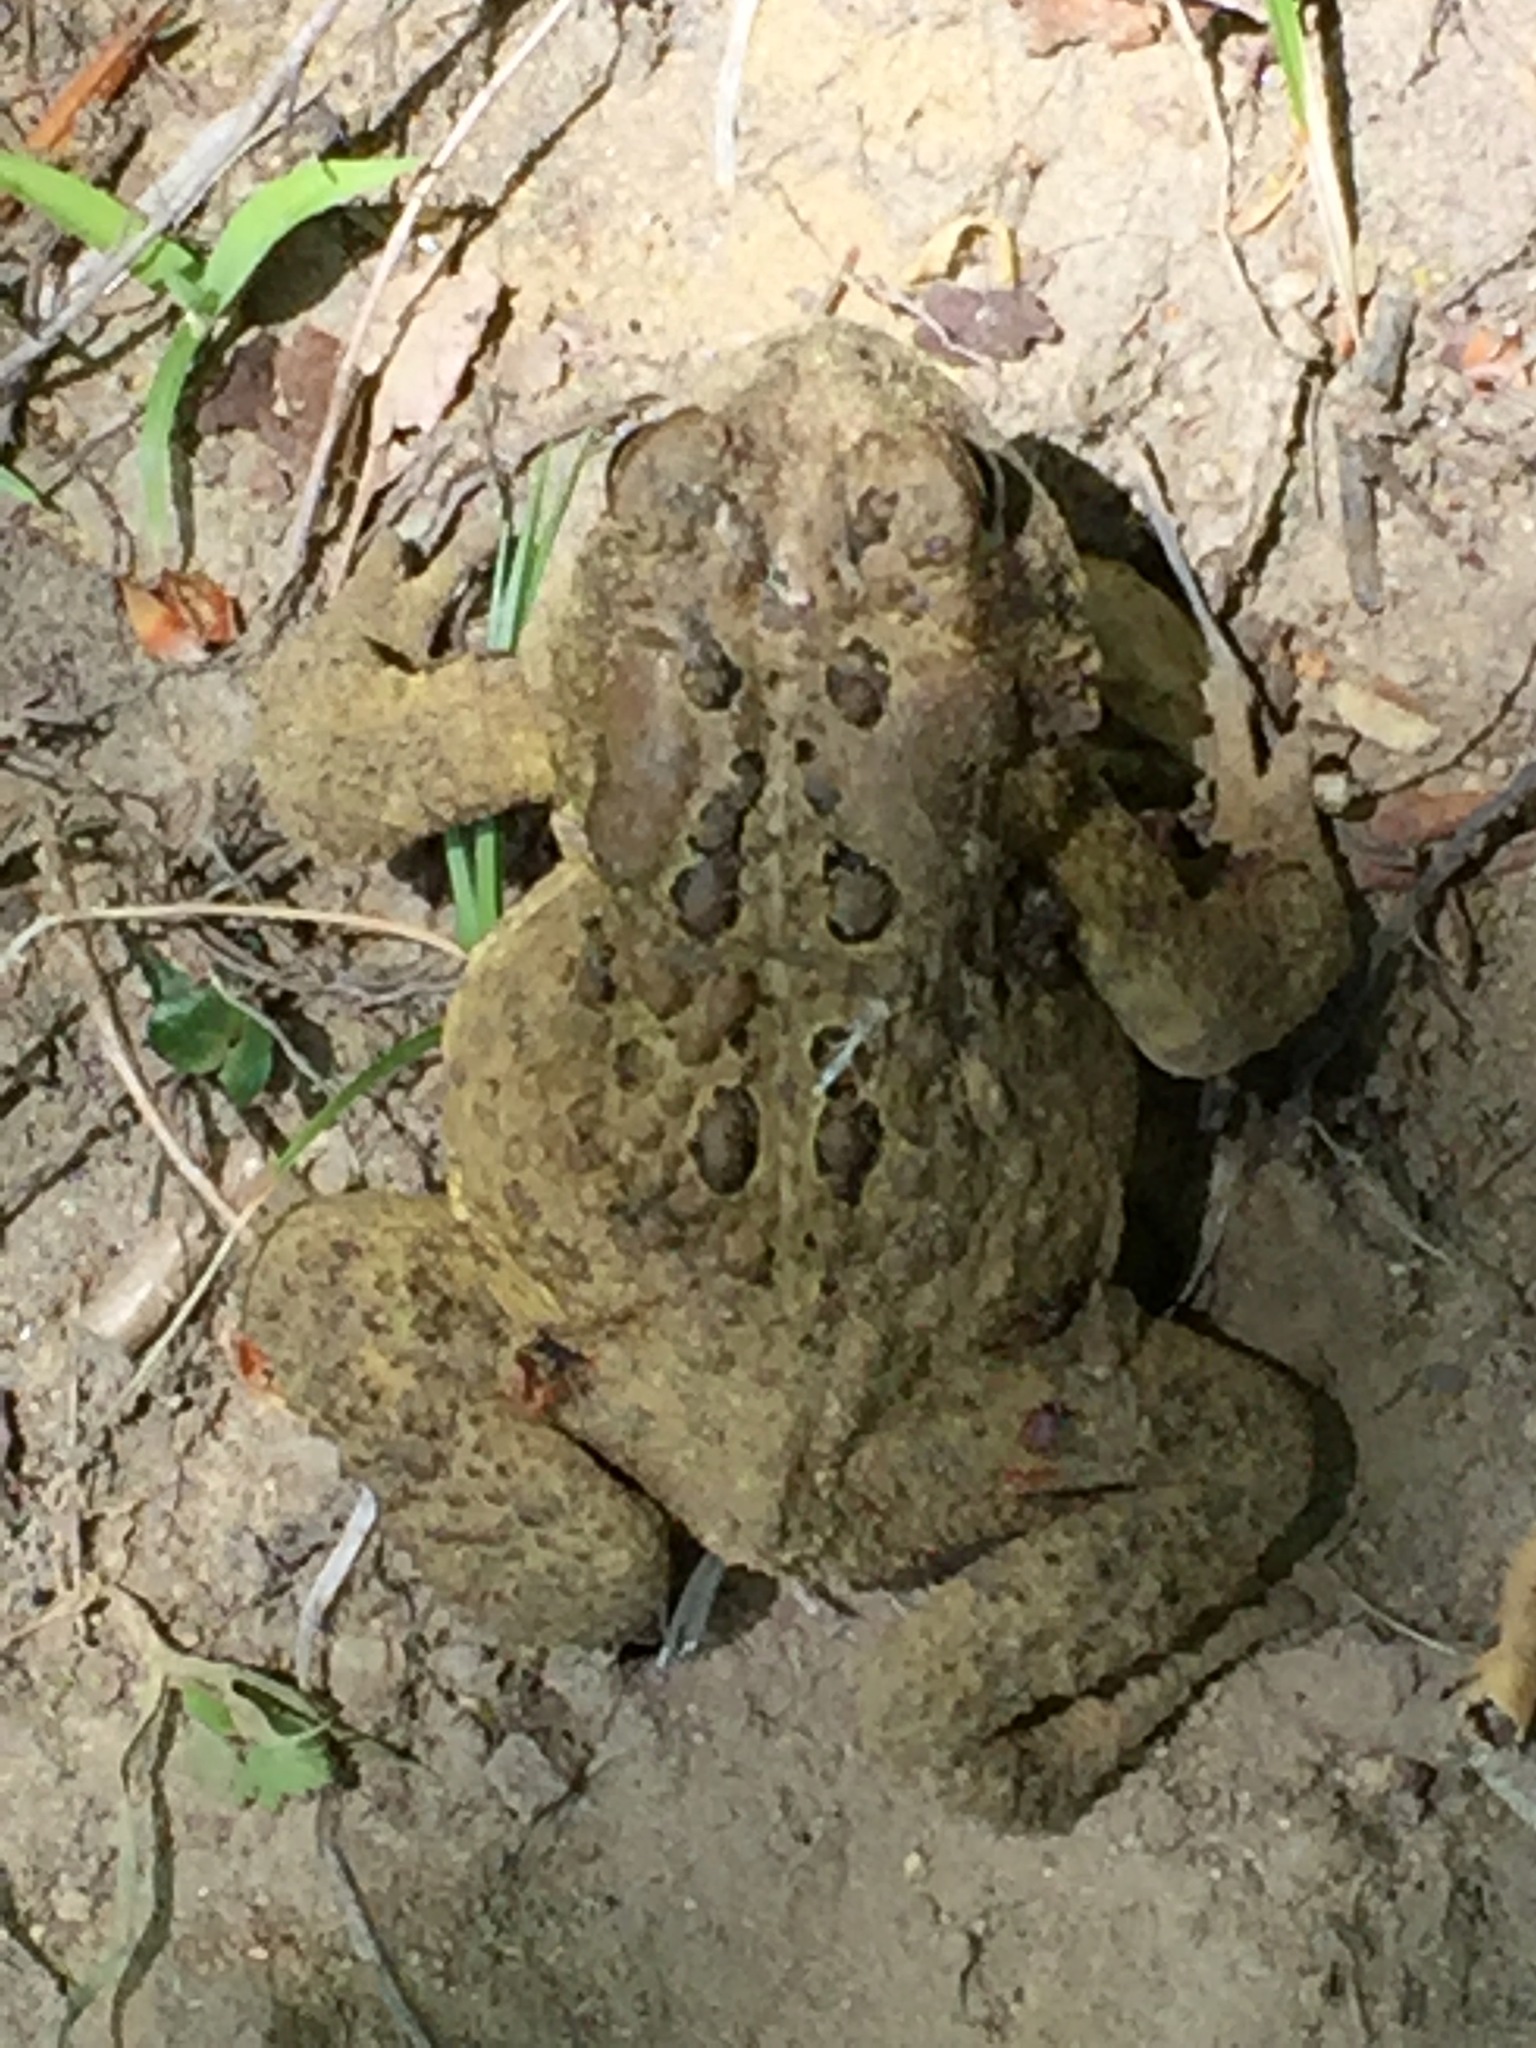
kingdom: Animalia
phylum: Chordata
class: Amphibia
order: Anura
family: Bufonidae
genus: Anaxyrus
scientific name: Anaxyrus americanus
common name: American toad
